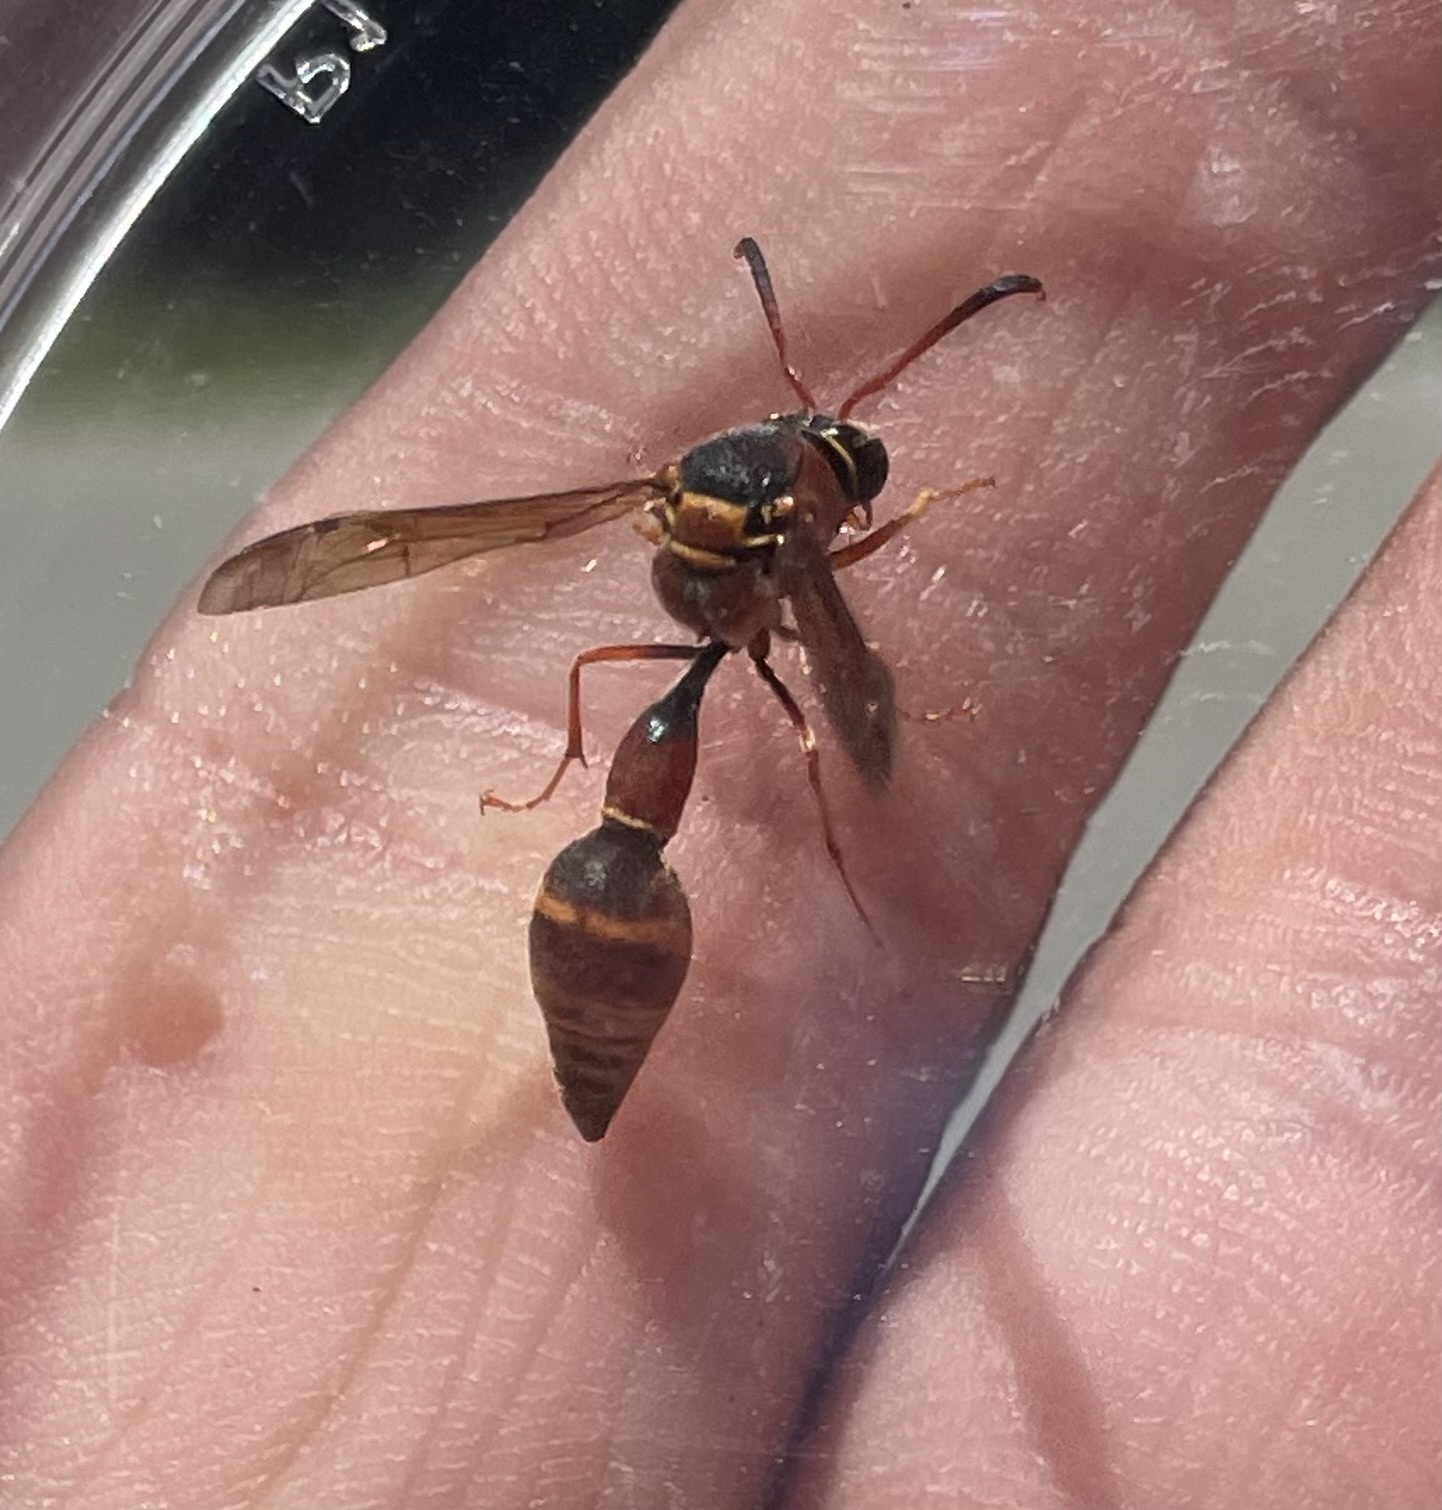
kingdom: Animalia
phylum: Arthropoda
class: Insecta
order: Hymenoptera
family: Vespidae
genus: Eumenes
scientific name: Eumenes smithii
